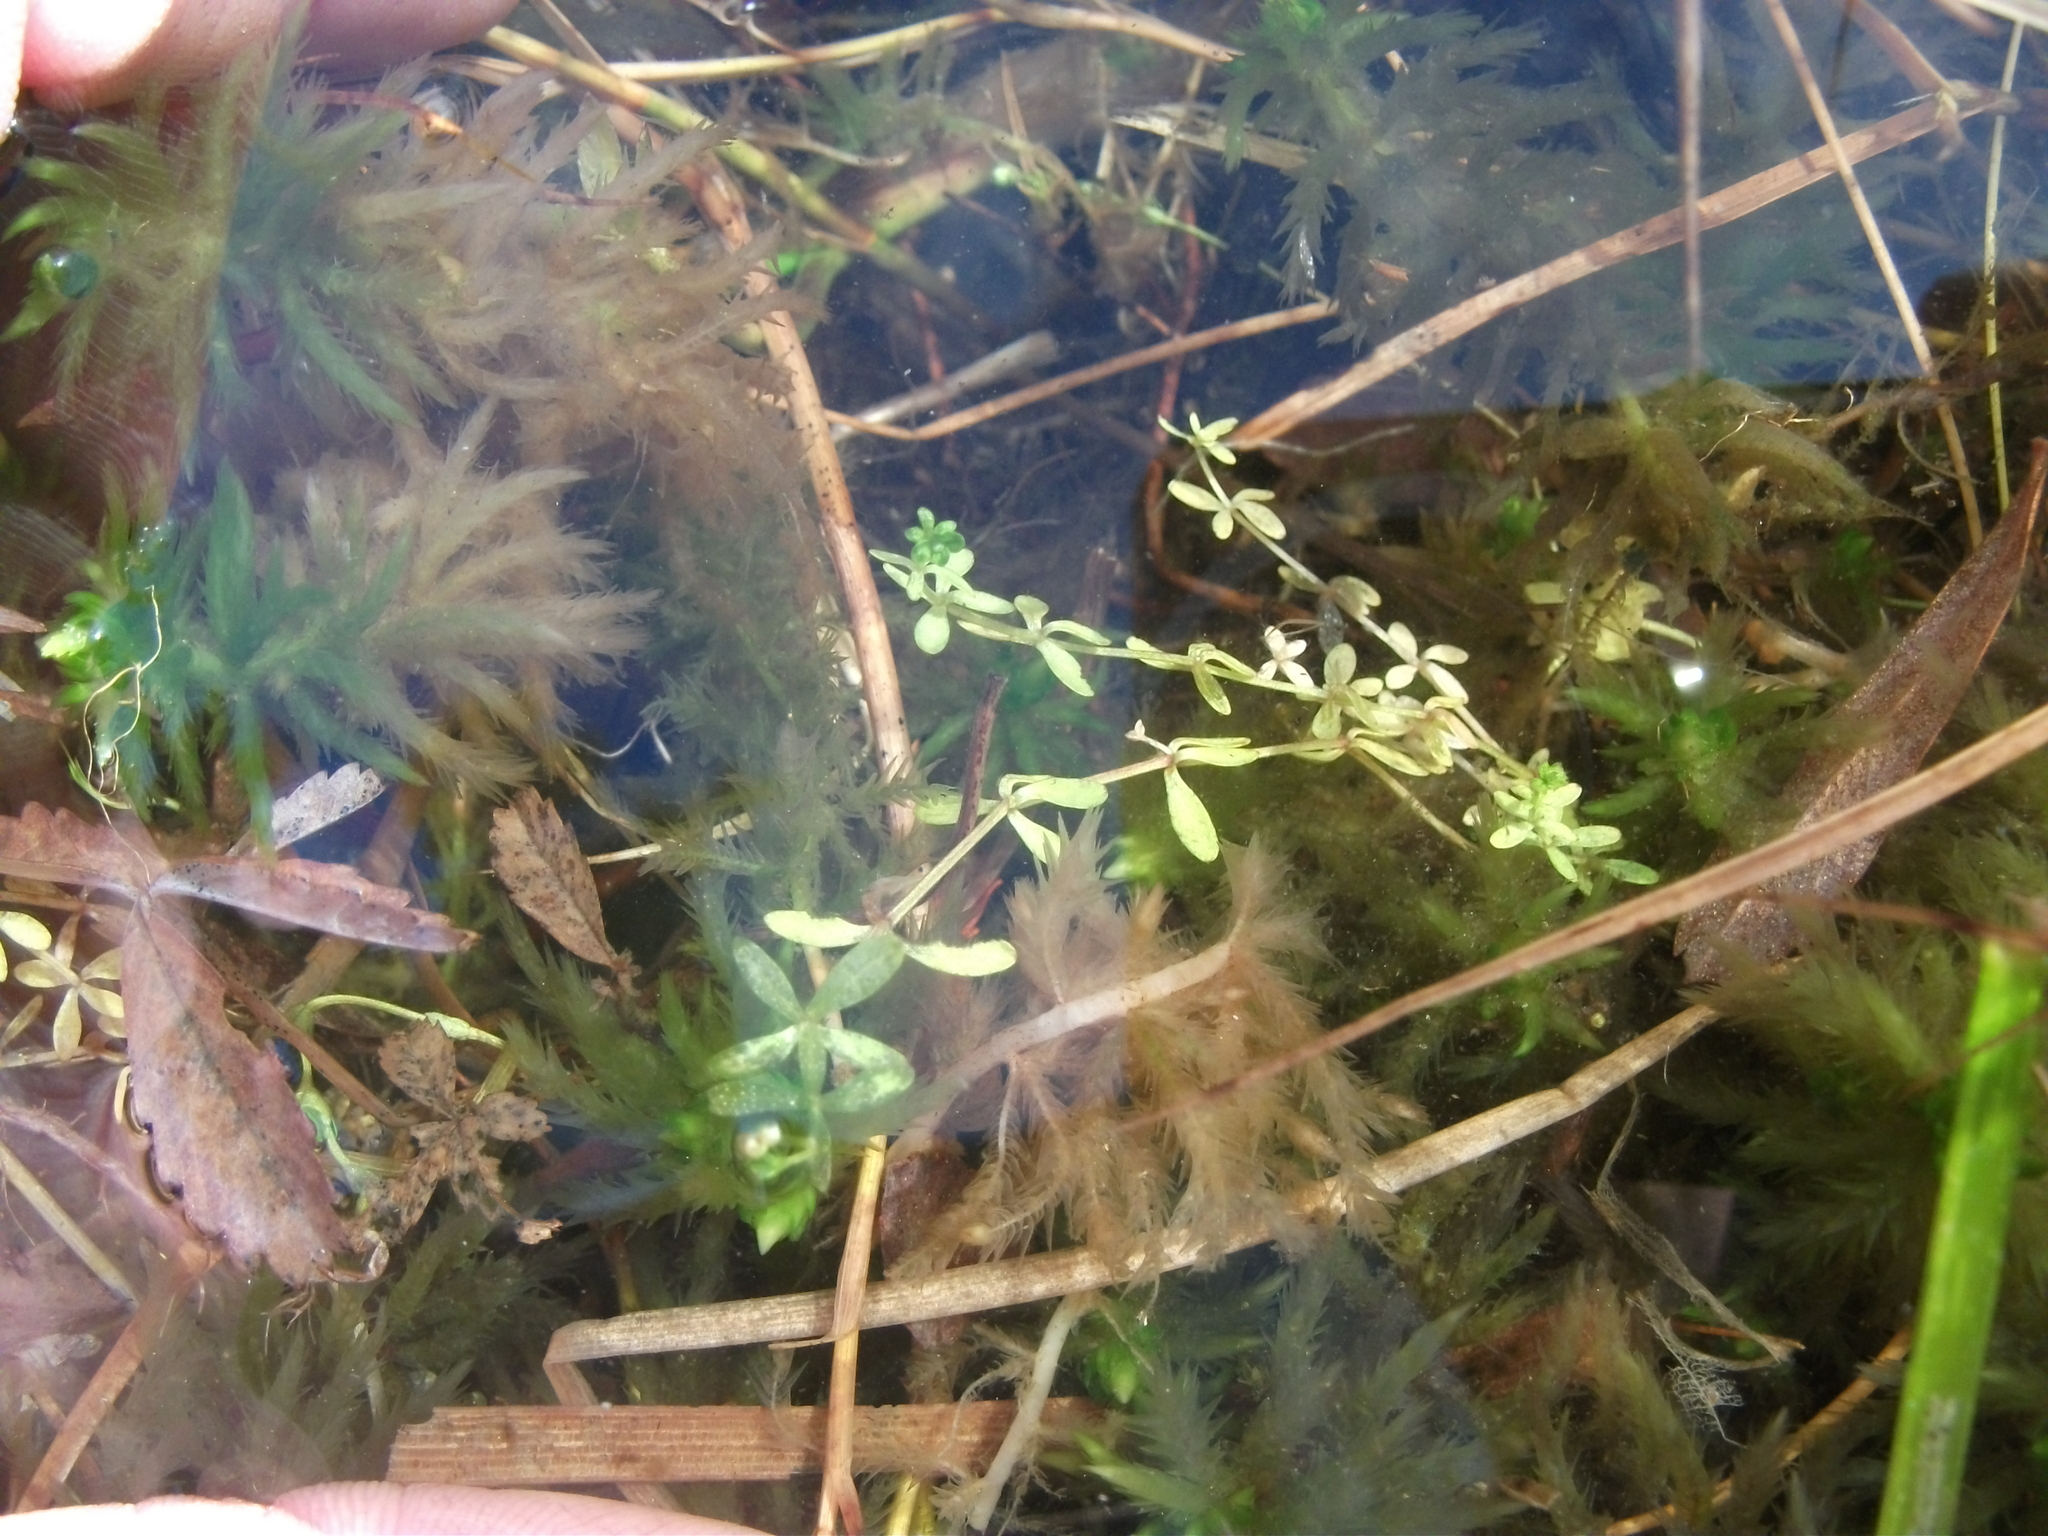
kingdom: Plantae
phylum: Tracheophyta
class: Magnoliopsida
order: Gentianales
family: Rubiaceae
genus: Galium
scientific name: Galium trifidum
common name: Small bedstraw
